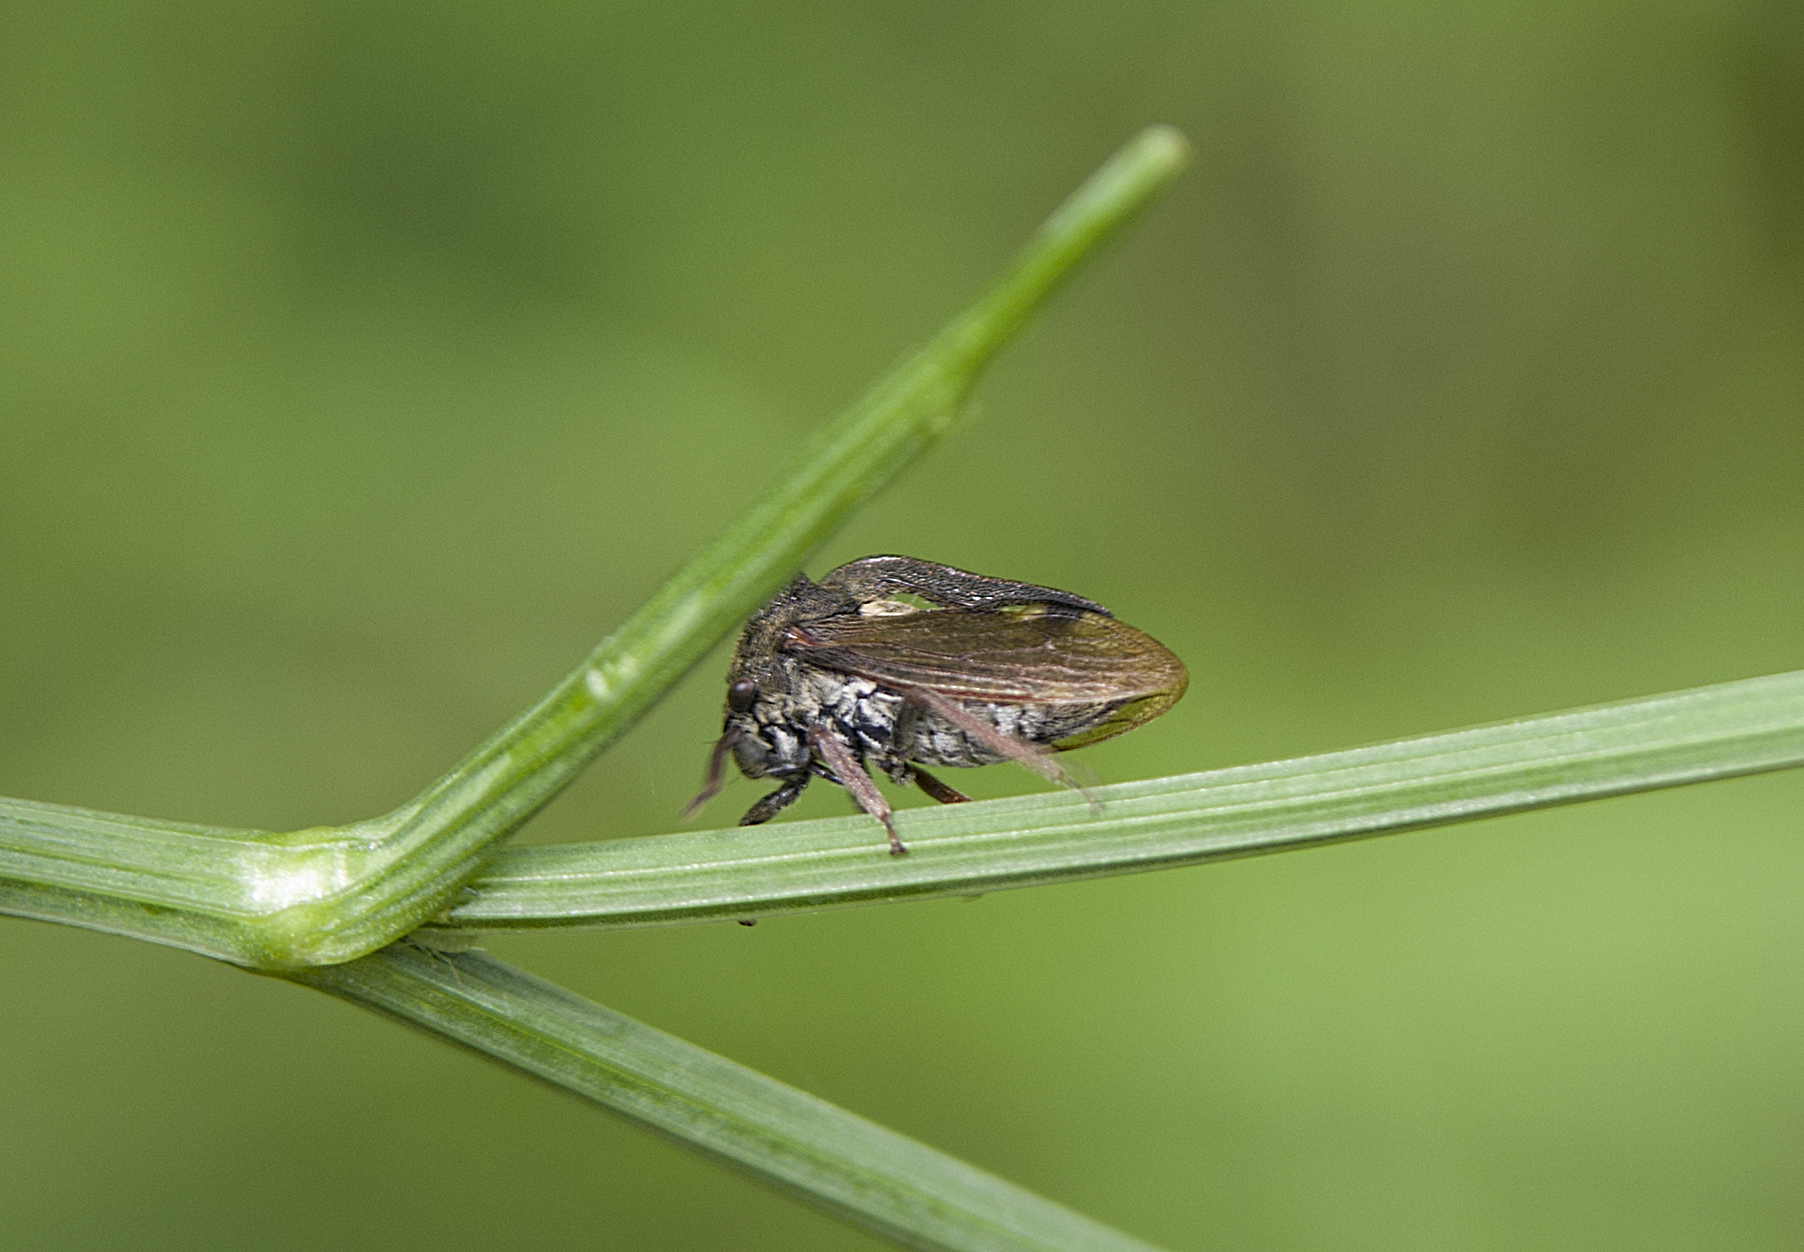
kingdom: Animalia
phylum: Arthropoda
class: Insecta
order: Hemiptera
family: Membracidae
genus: Centrotus
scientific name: Centrotus cornuta
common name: Treehopper
